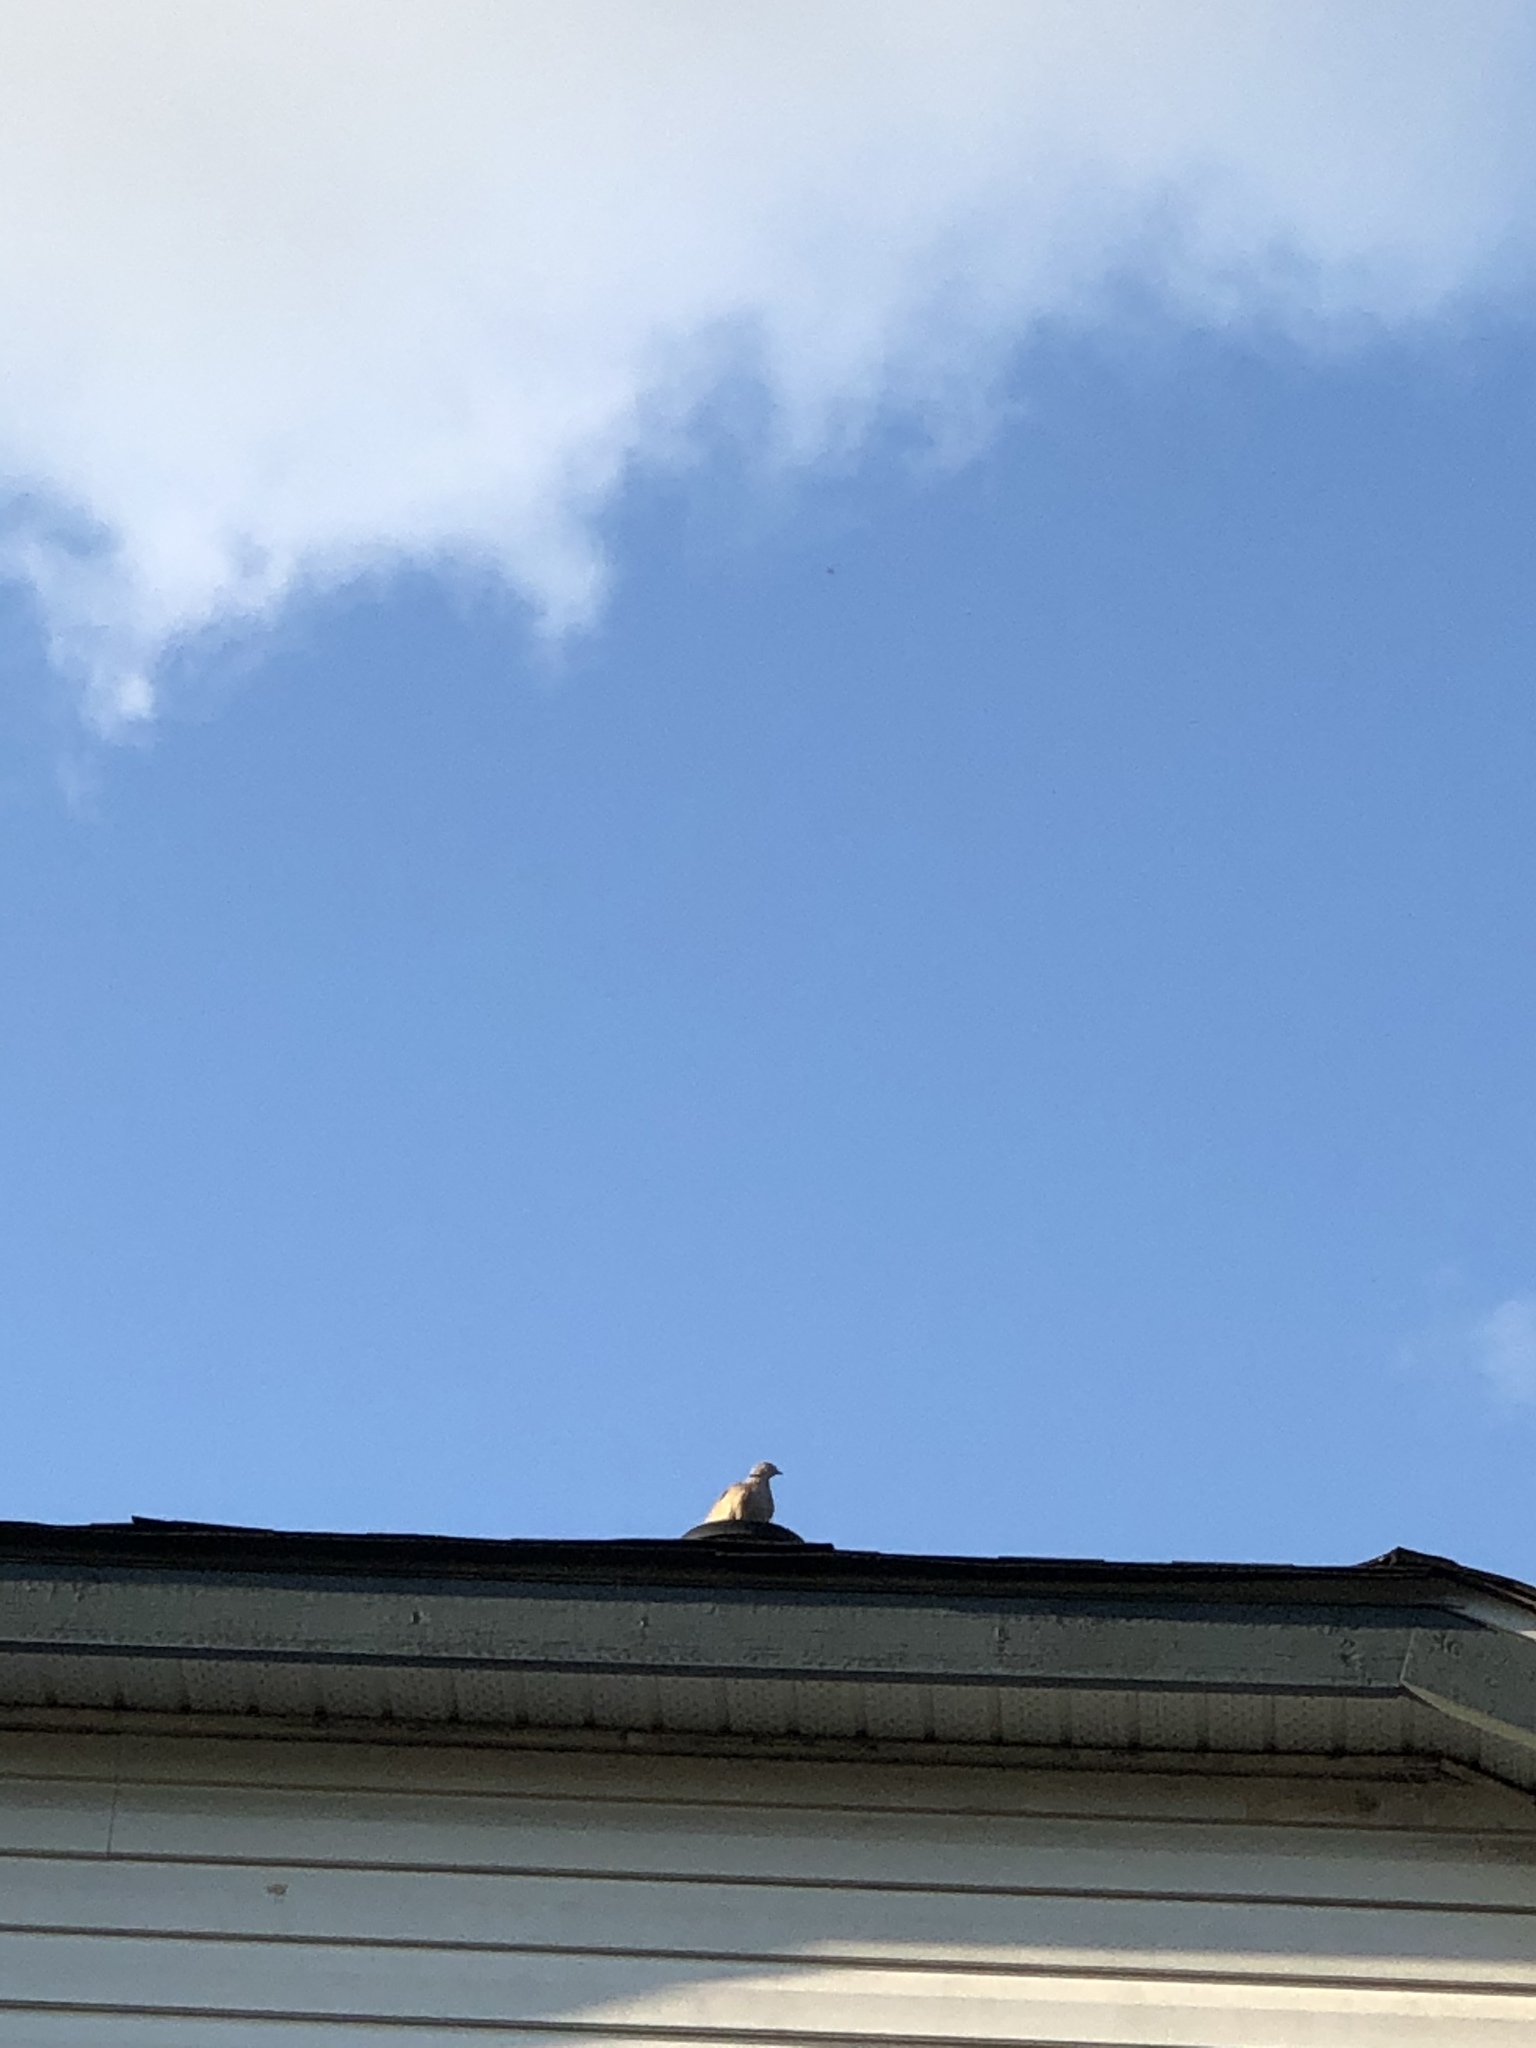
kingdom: Animalia
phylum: Chordata
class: Aves
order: Columbiformes
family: Columbidae
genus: Streptopelia
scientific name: Streptopelia decaocto
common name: Eurasian collared dove
